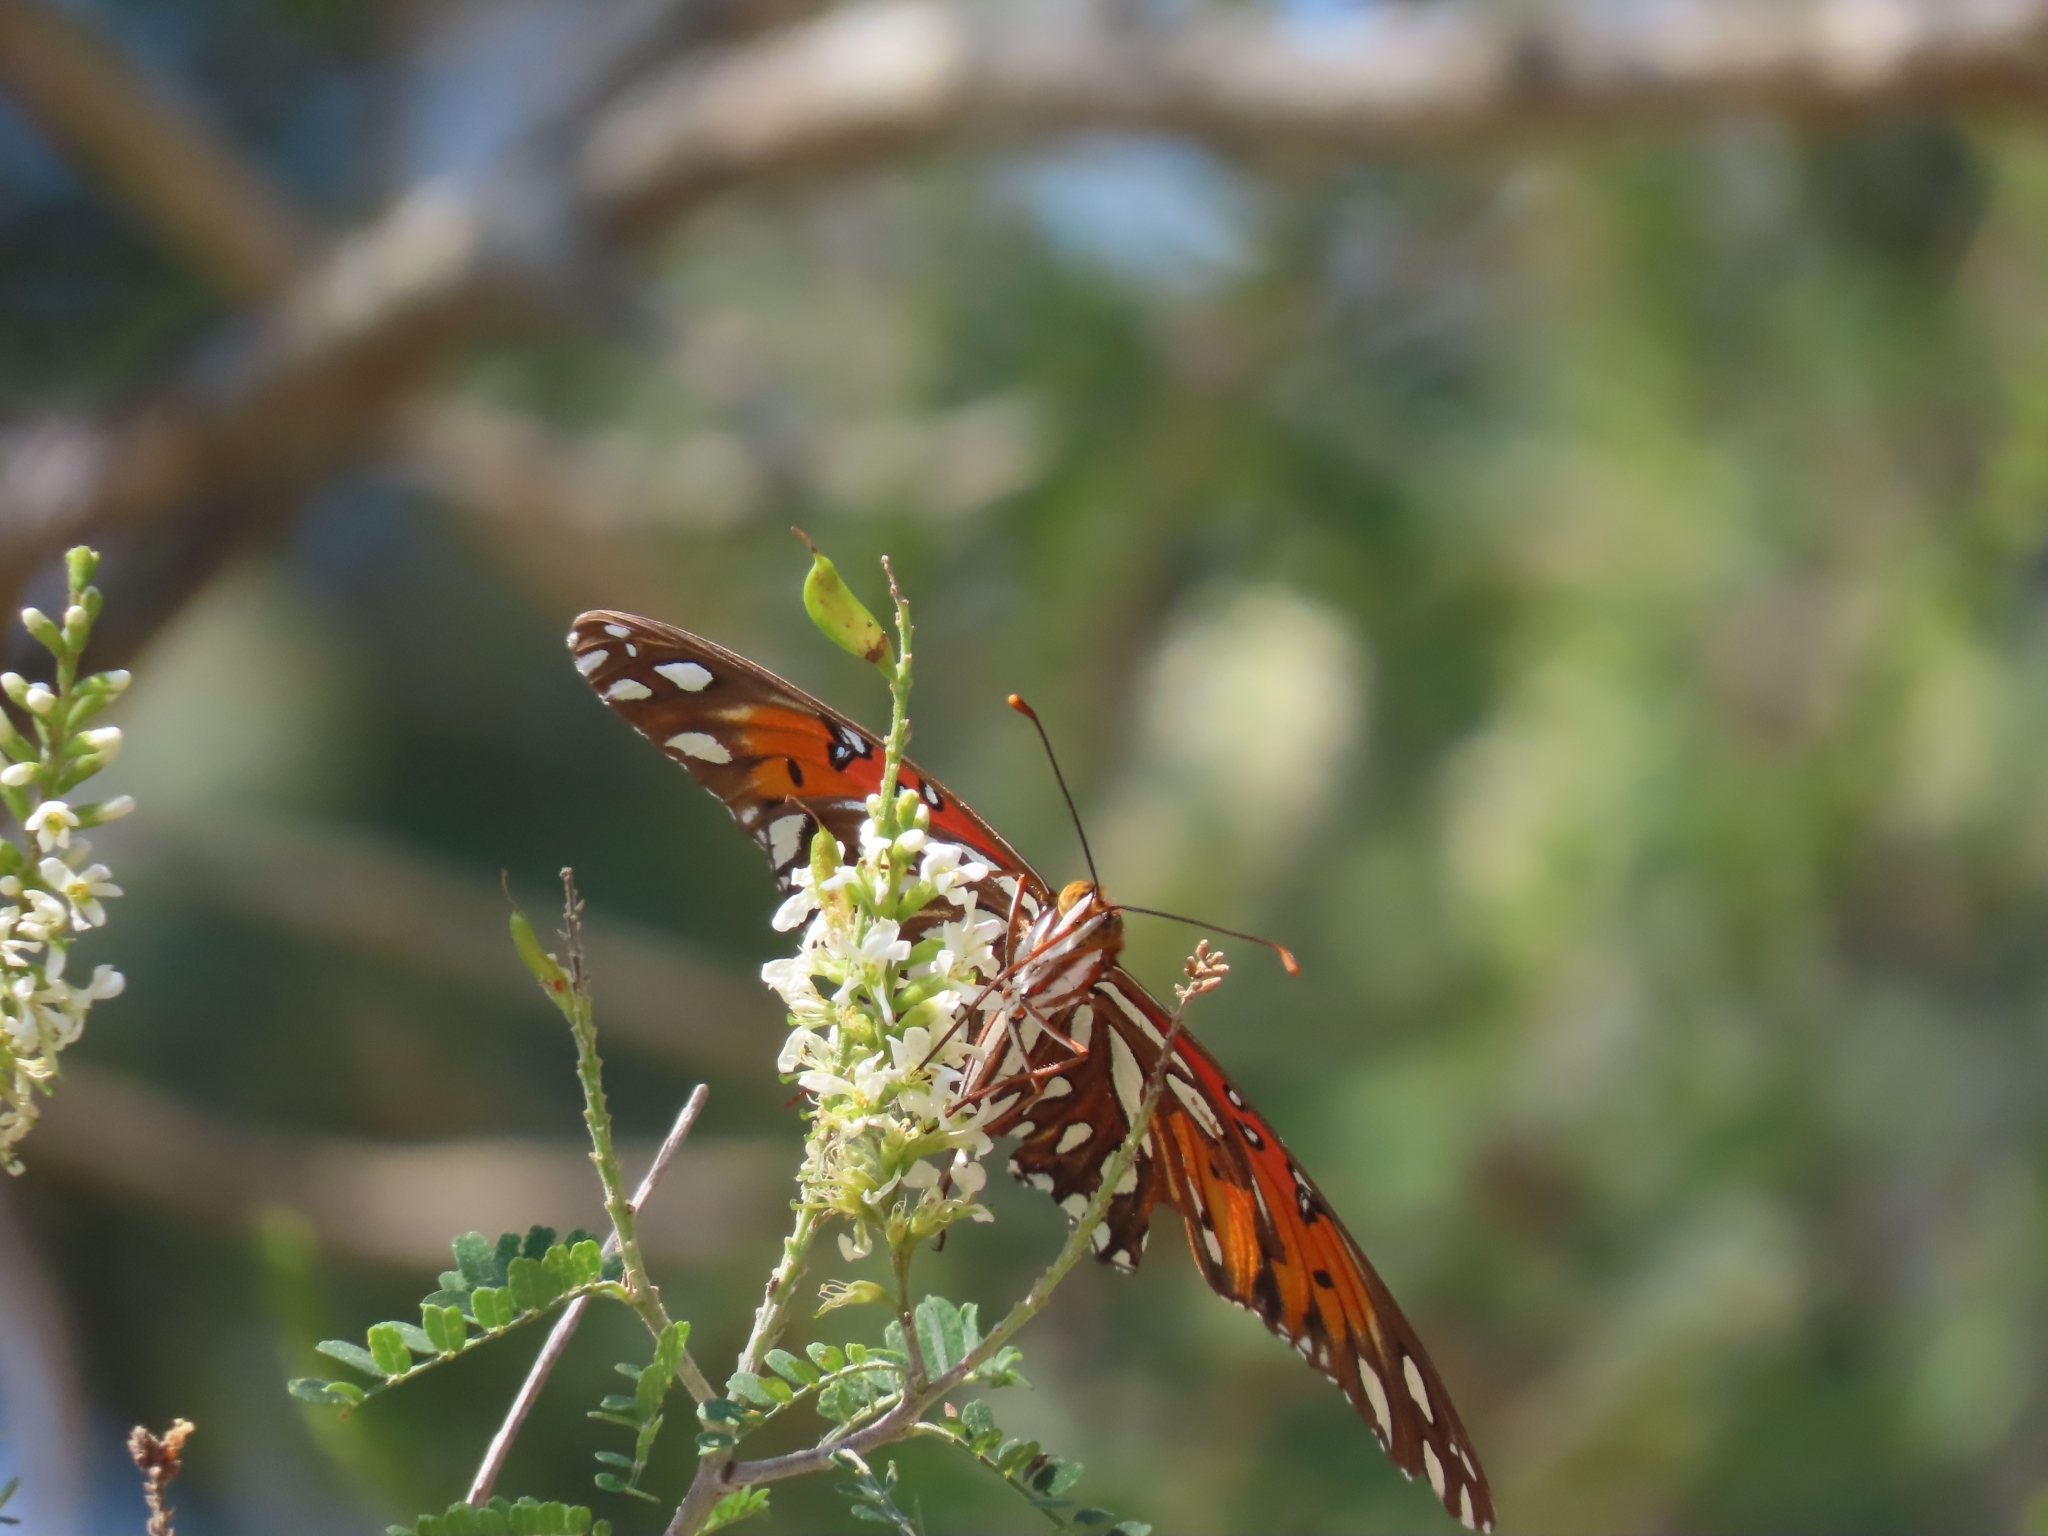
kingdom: Animalia
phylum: Arthropoda
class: Insecta
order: Lepidoptera
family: Nymphalidae
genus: Dione
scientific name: Dione vanillae
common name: Gulf fritillary
